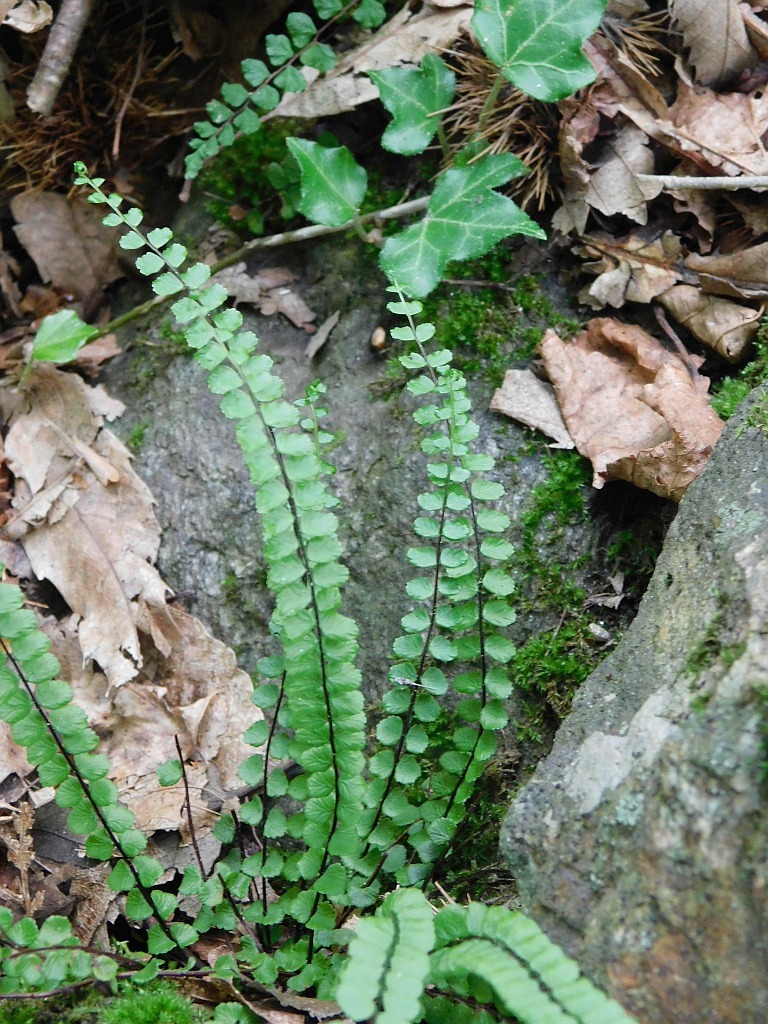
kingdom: Plantae
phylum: Tracheophyta
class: Polypodiopsida
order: Polypodiales
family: Aspleniaceae
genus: Asplenium
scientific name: Asplenium trichomanes
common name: Maidenhair spleenwort
